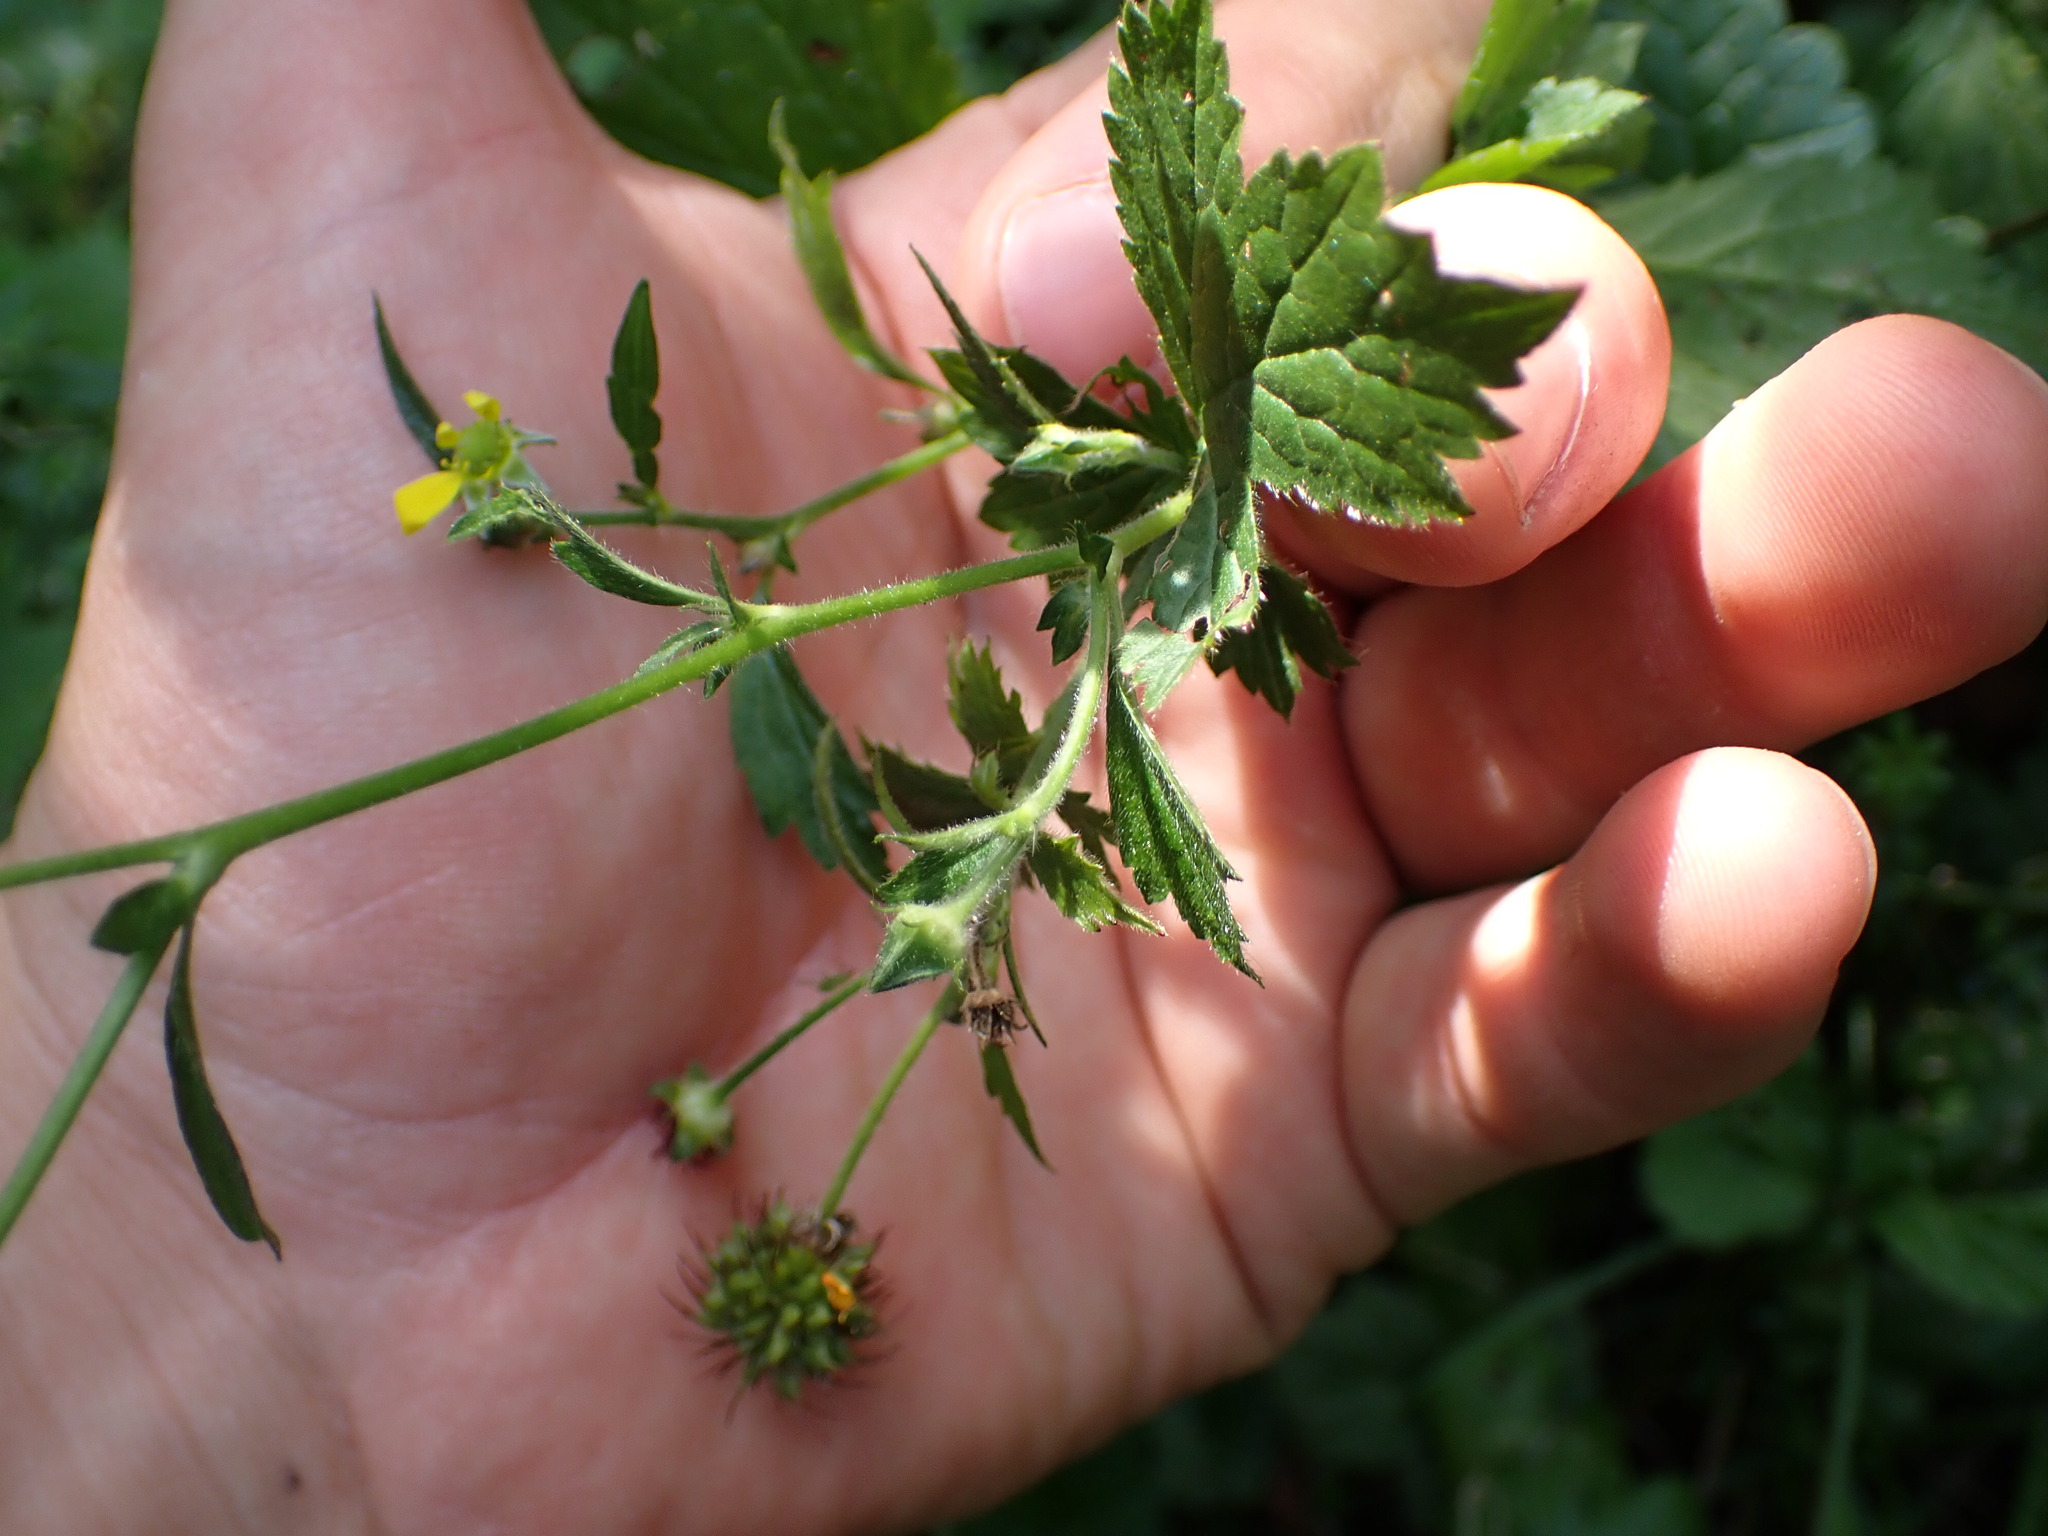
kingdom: Plantae
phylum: Tracheophyta
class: Magnoliopsida
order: Rosales
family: Rosaceae
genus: Geum
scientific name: Geum urbanum
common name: Wood avens
